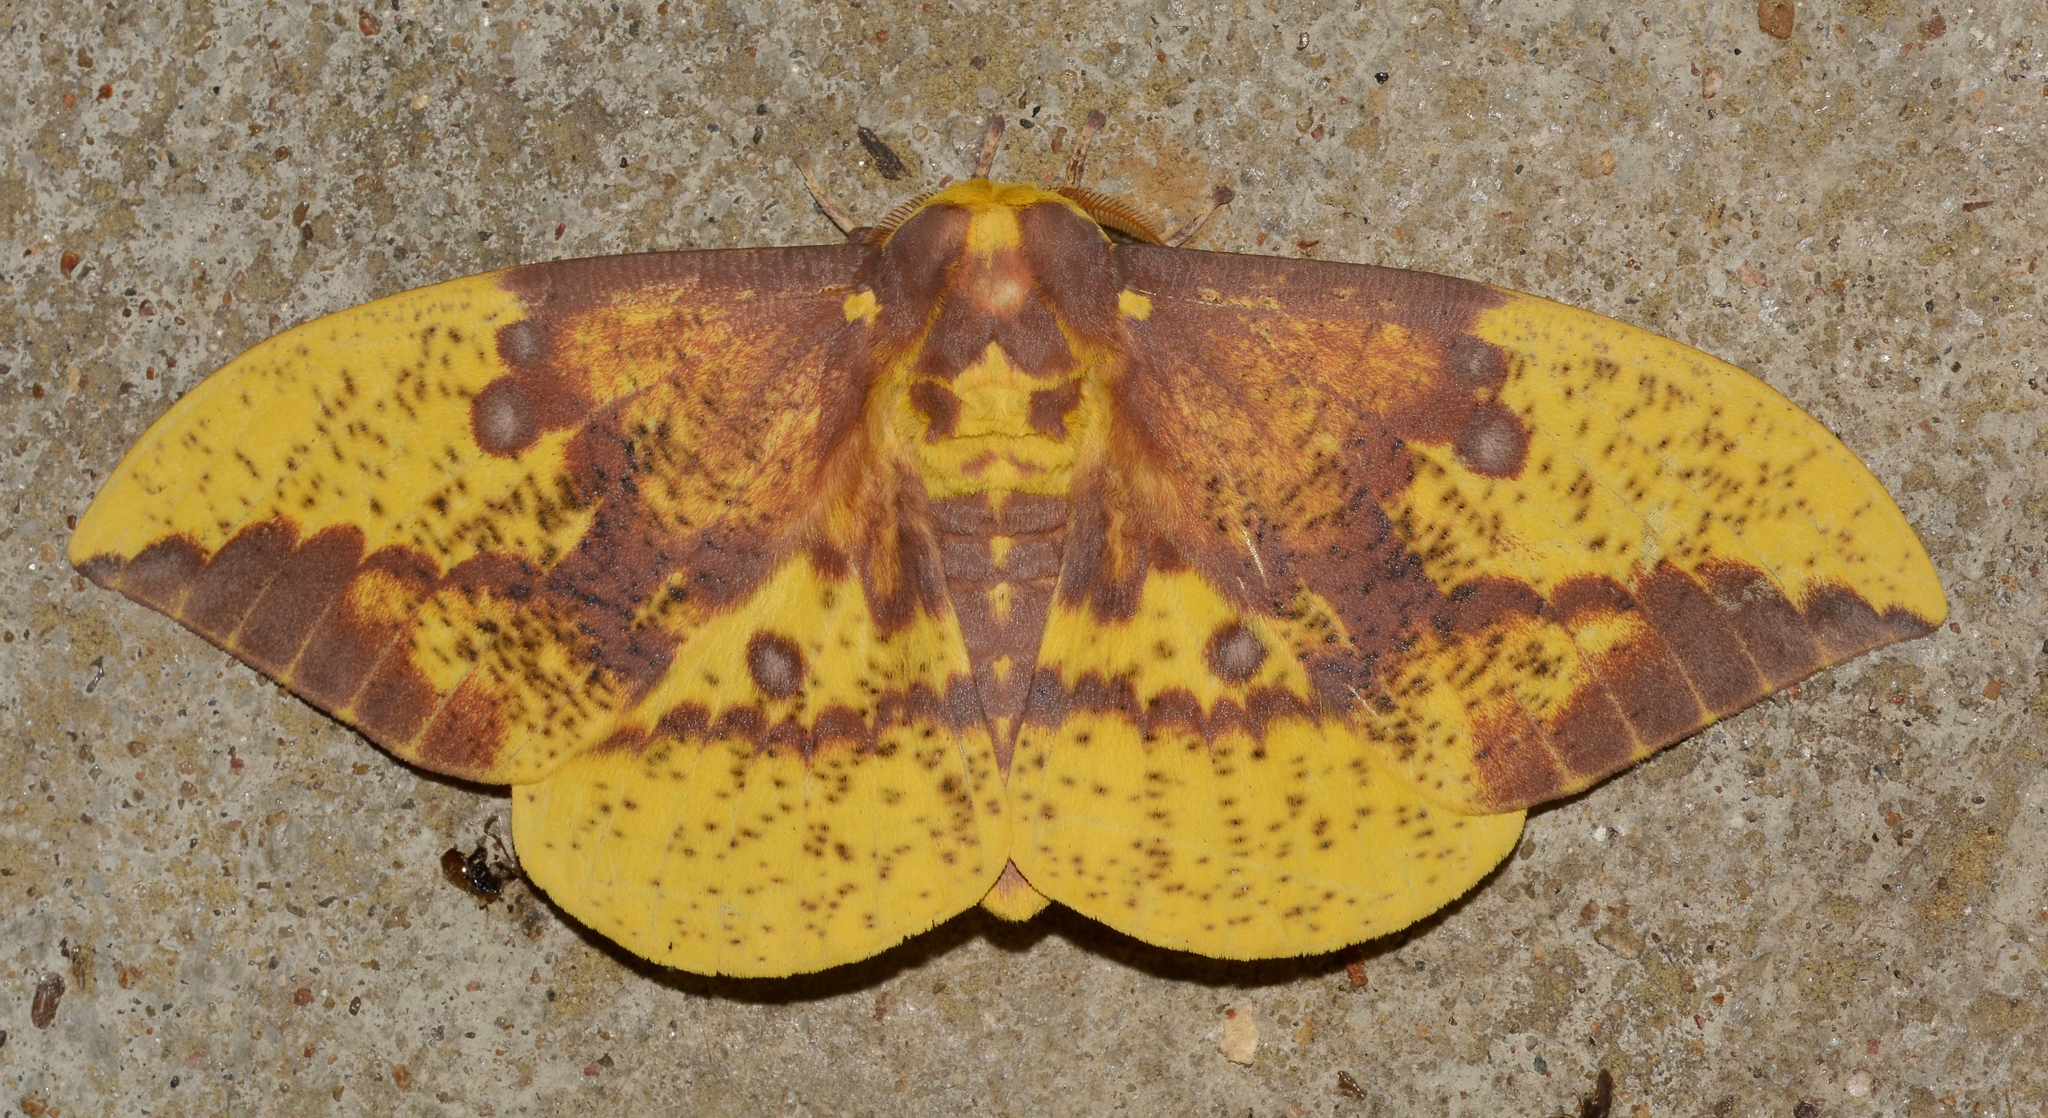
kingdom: Animalia
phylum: Arthropoda
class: Insecta
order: Lepidoptera
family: Saturniidae
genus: Eacles
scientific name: Eacles imperialis
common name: Imperial moth
